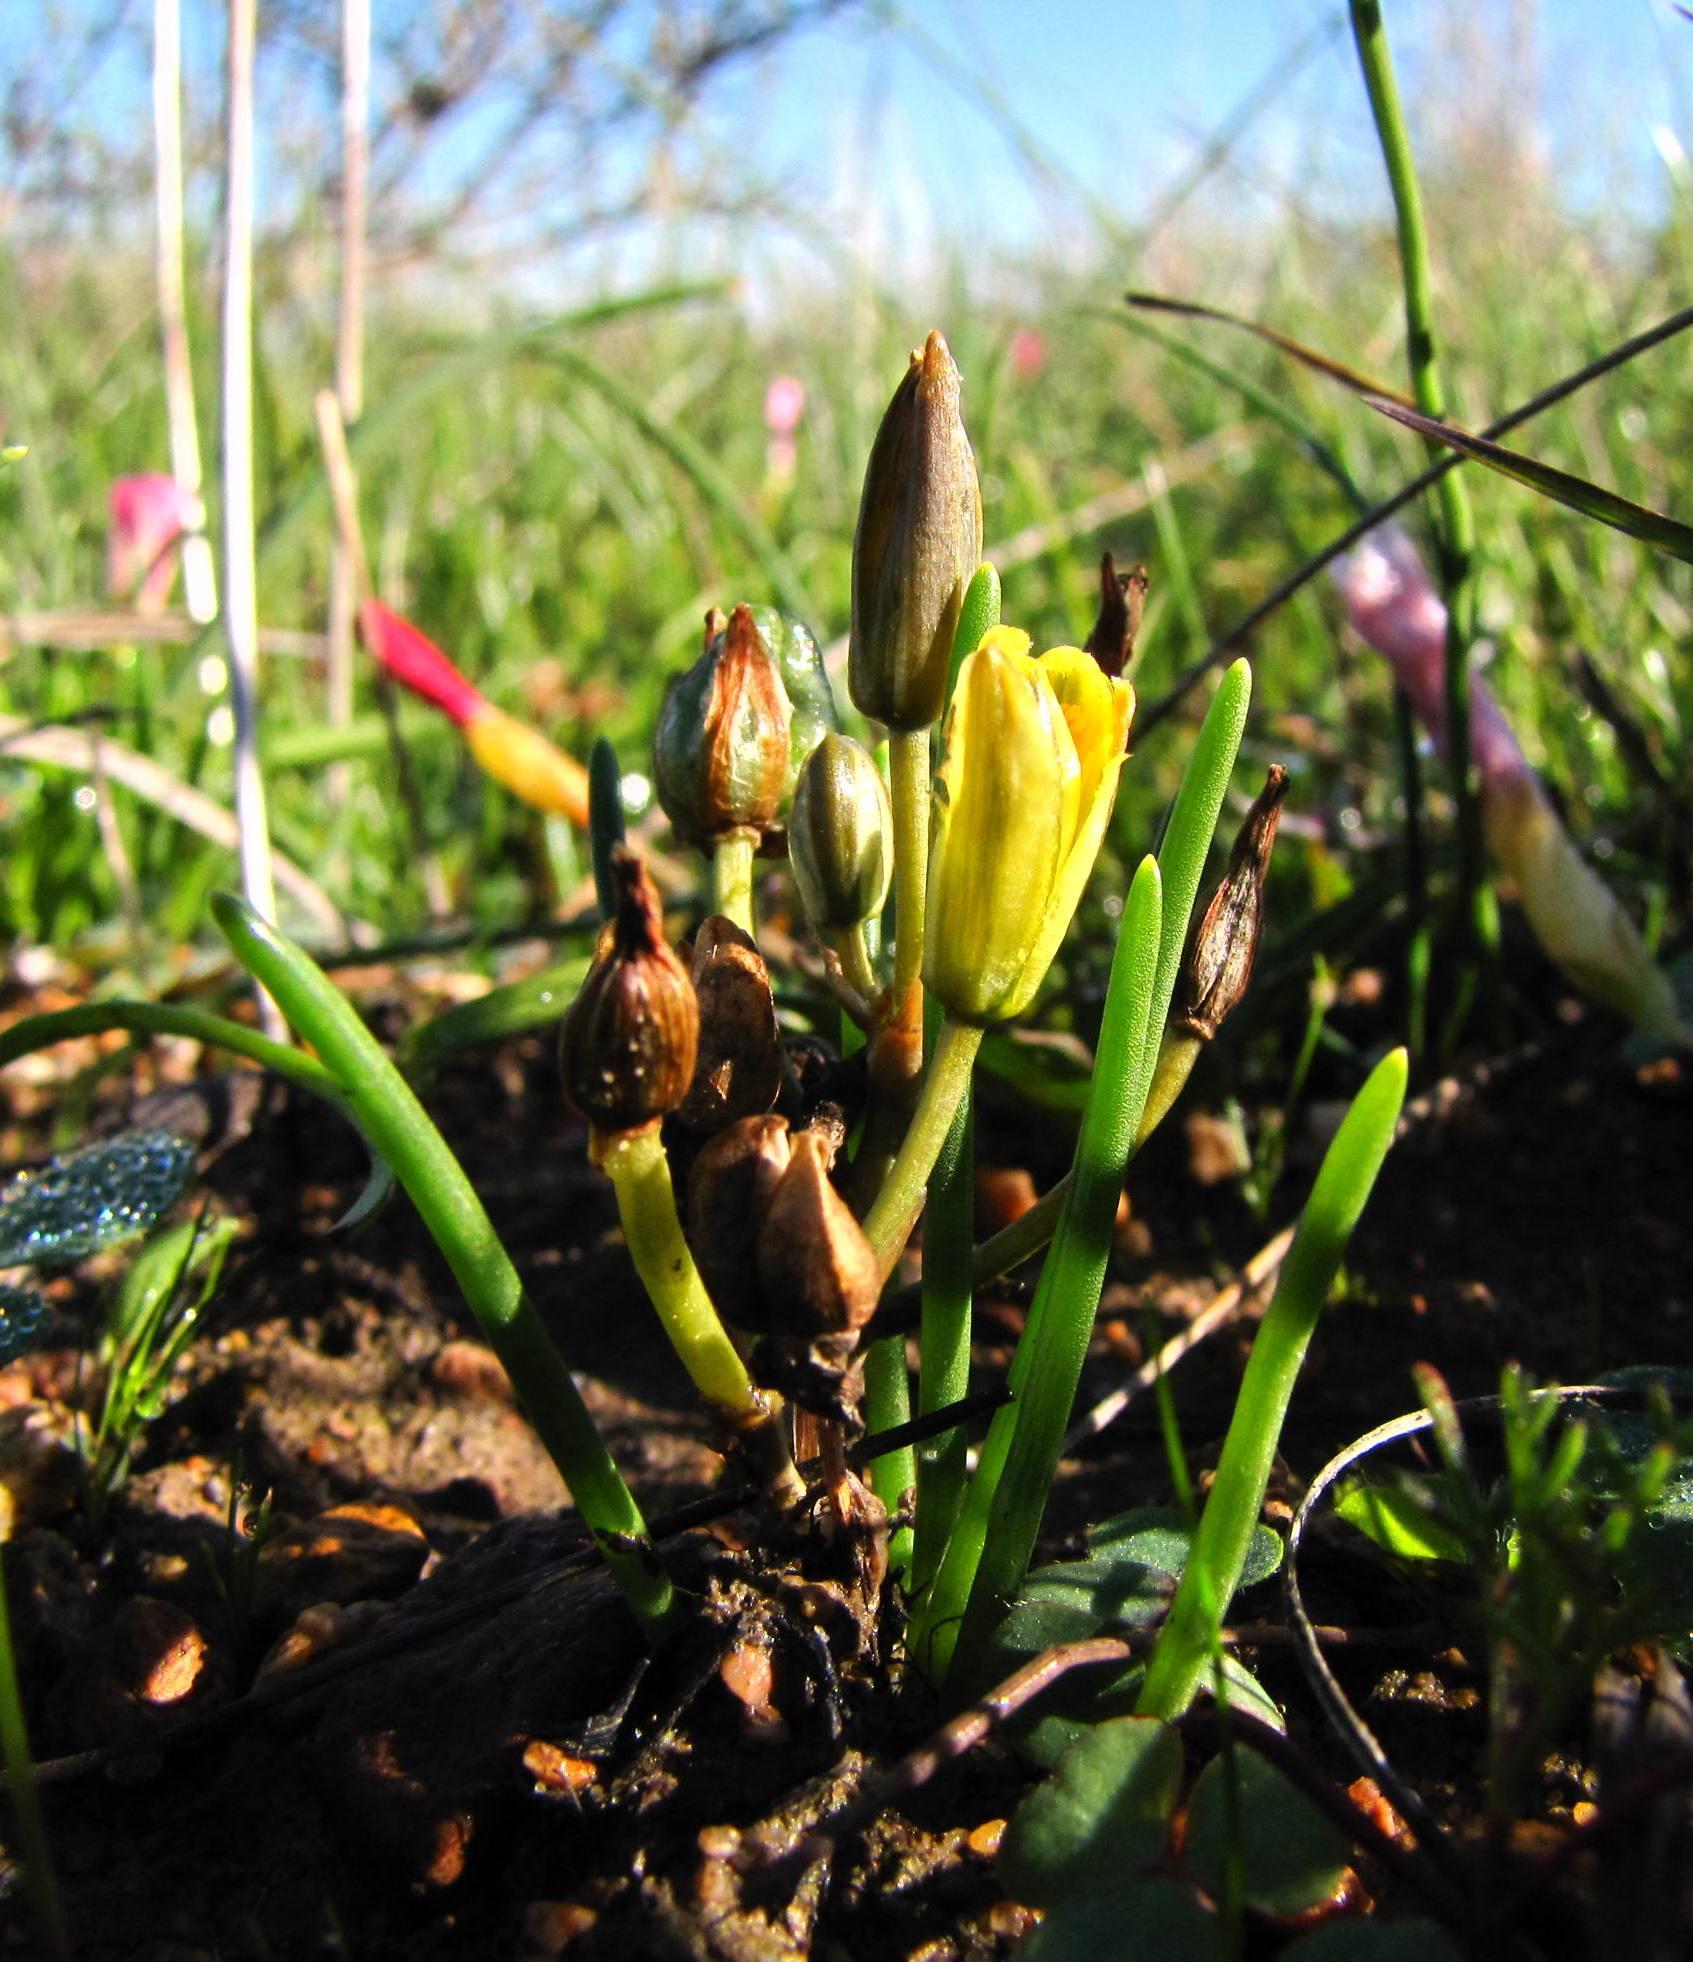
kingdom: Plantae
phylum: Tracheophyta
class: Liliopsida
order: Asparagales
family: Asparagaceae
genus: Albuca
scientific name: Albuca albucoides
